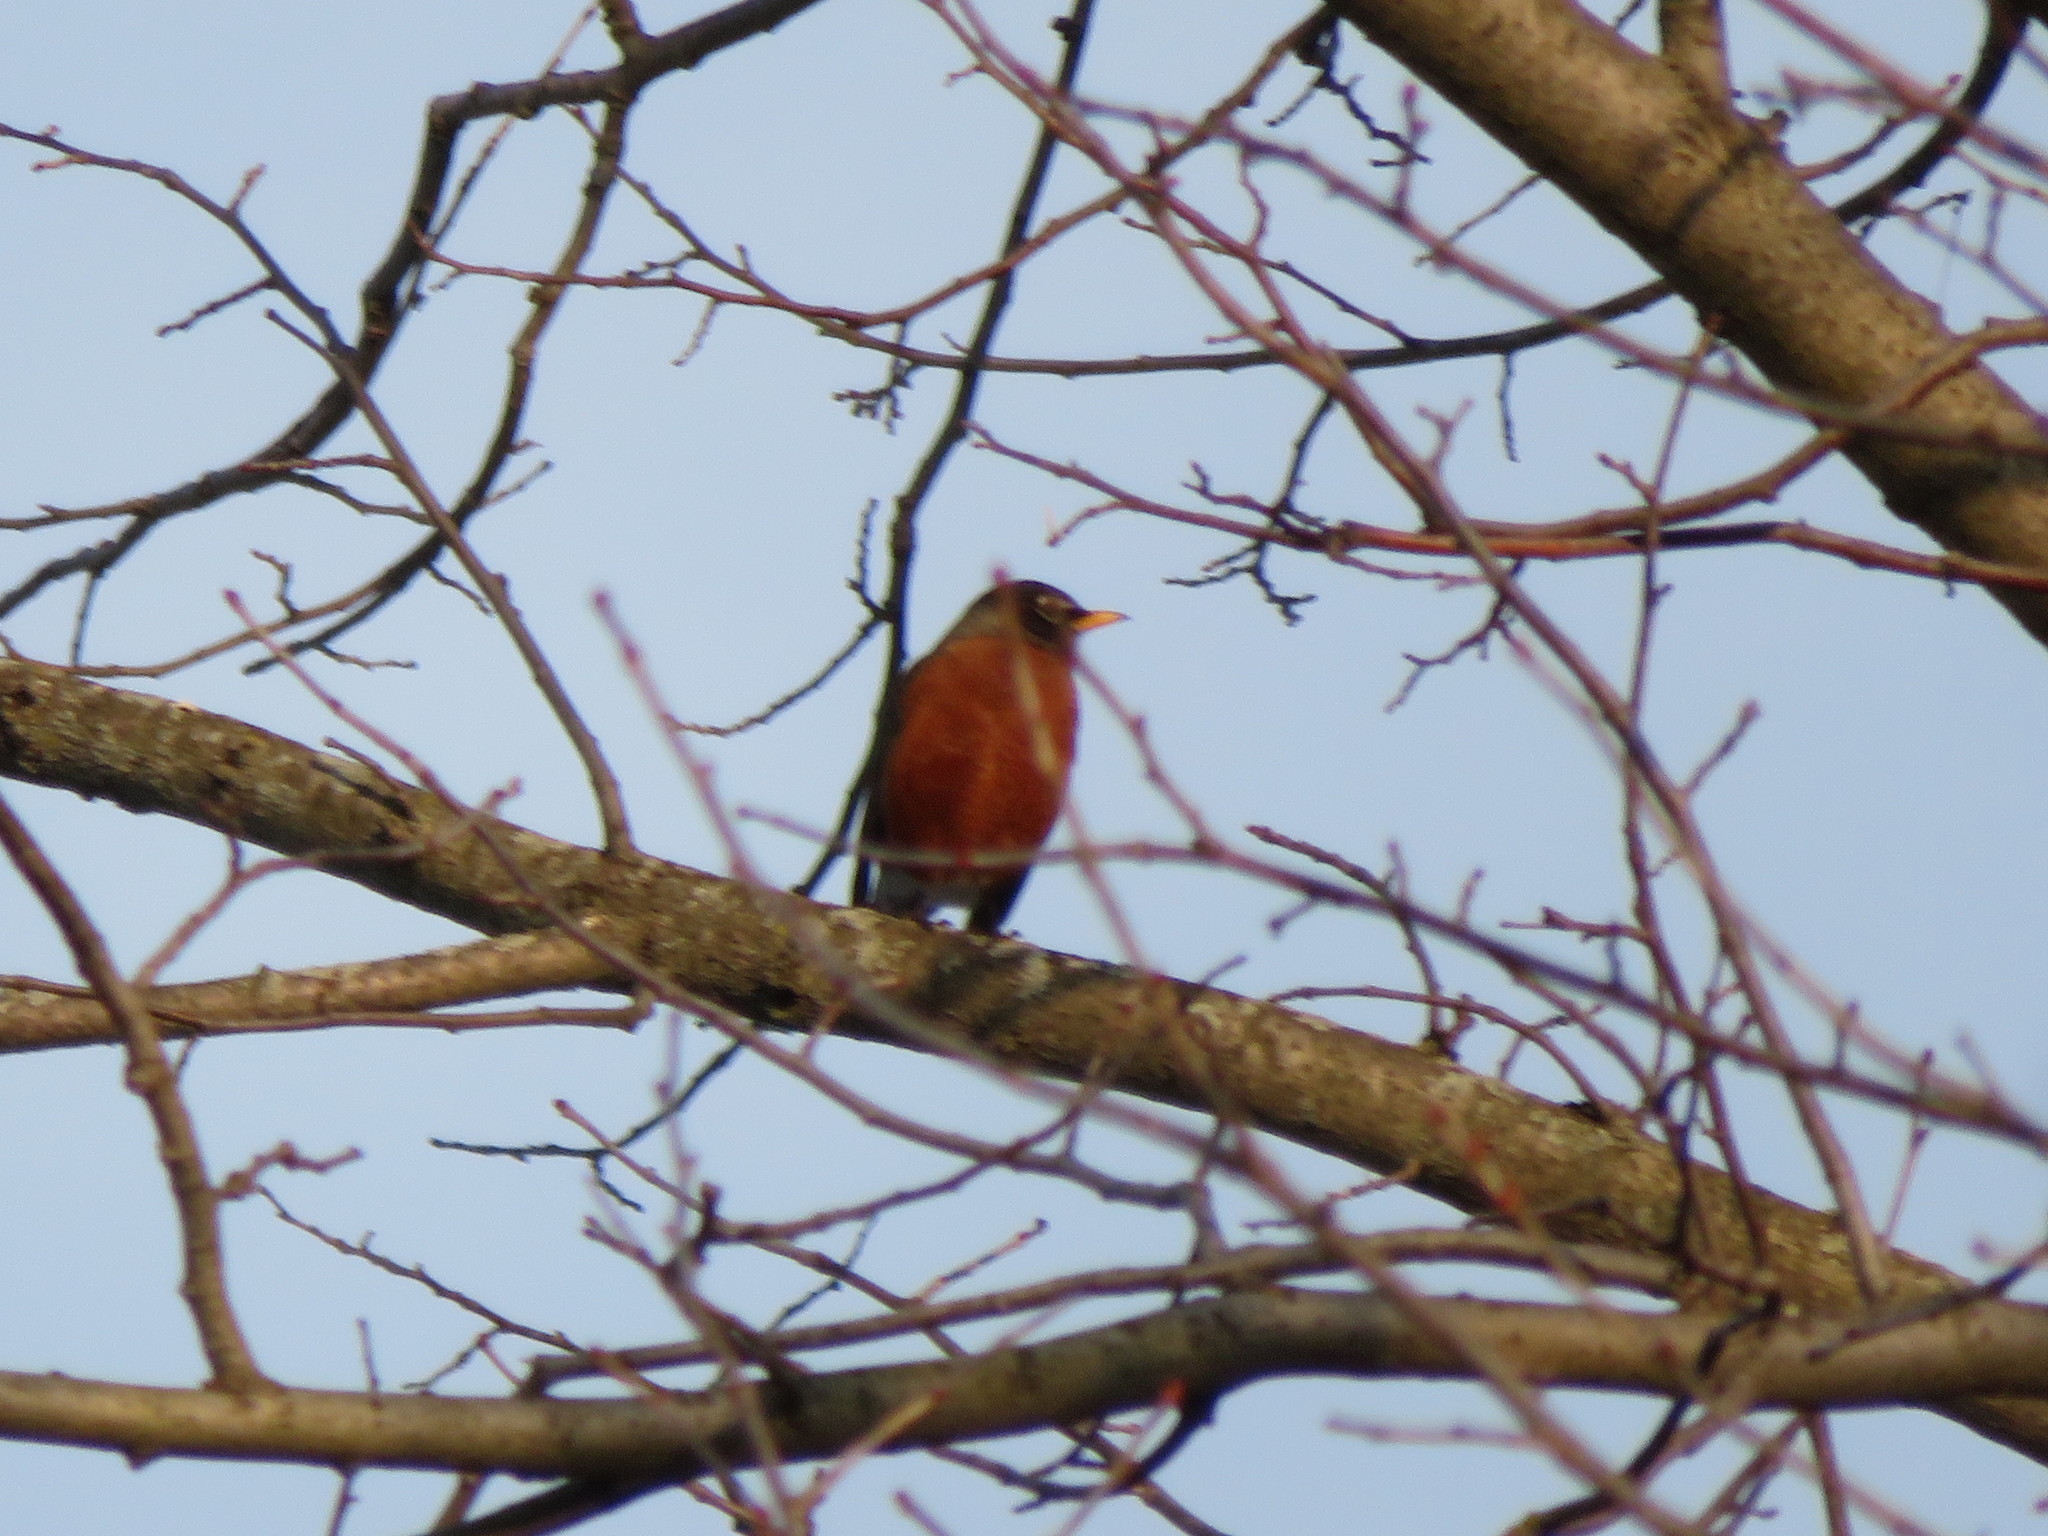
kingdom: Animalia
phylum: Chordata
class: Aves
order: Passeriformes
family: Turdidae
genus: Turdus
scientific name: Turdus migratorius
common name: American robin
